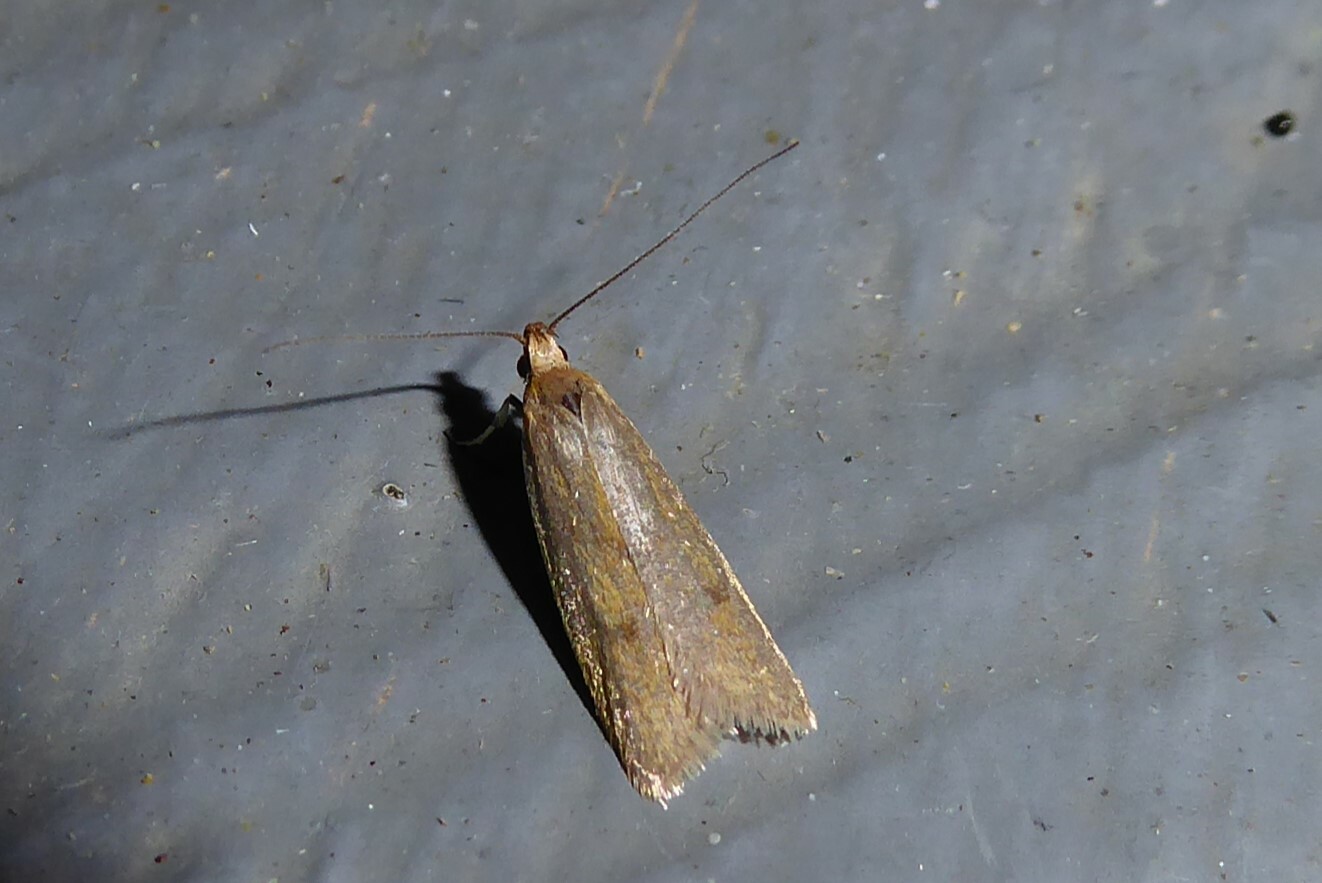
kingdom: Animalia
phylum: Arthropoda
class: Insecta
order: Lepidoptera
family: Oecophoridae
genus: Gymnobathra
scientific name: Gymnobathra parca
